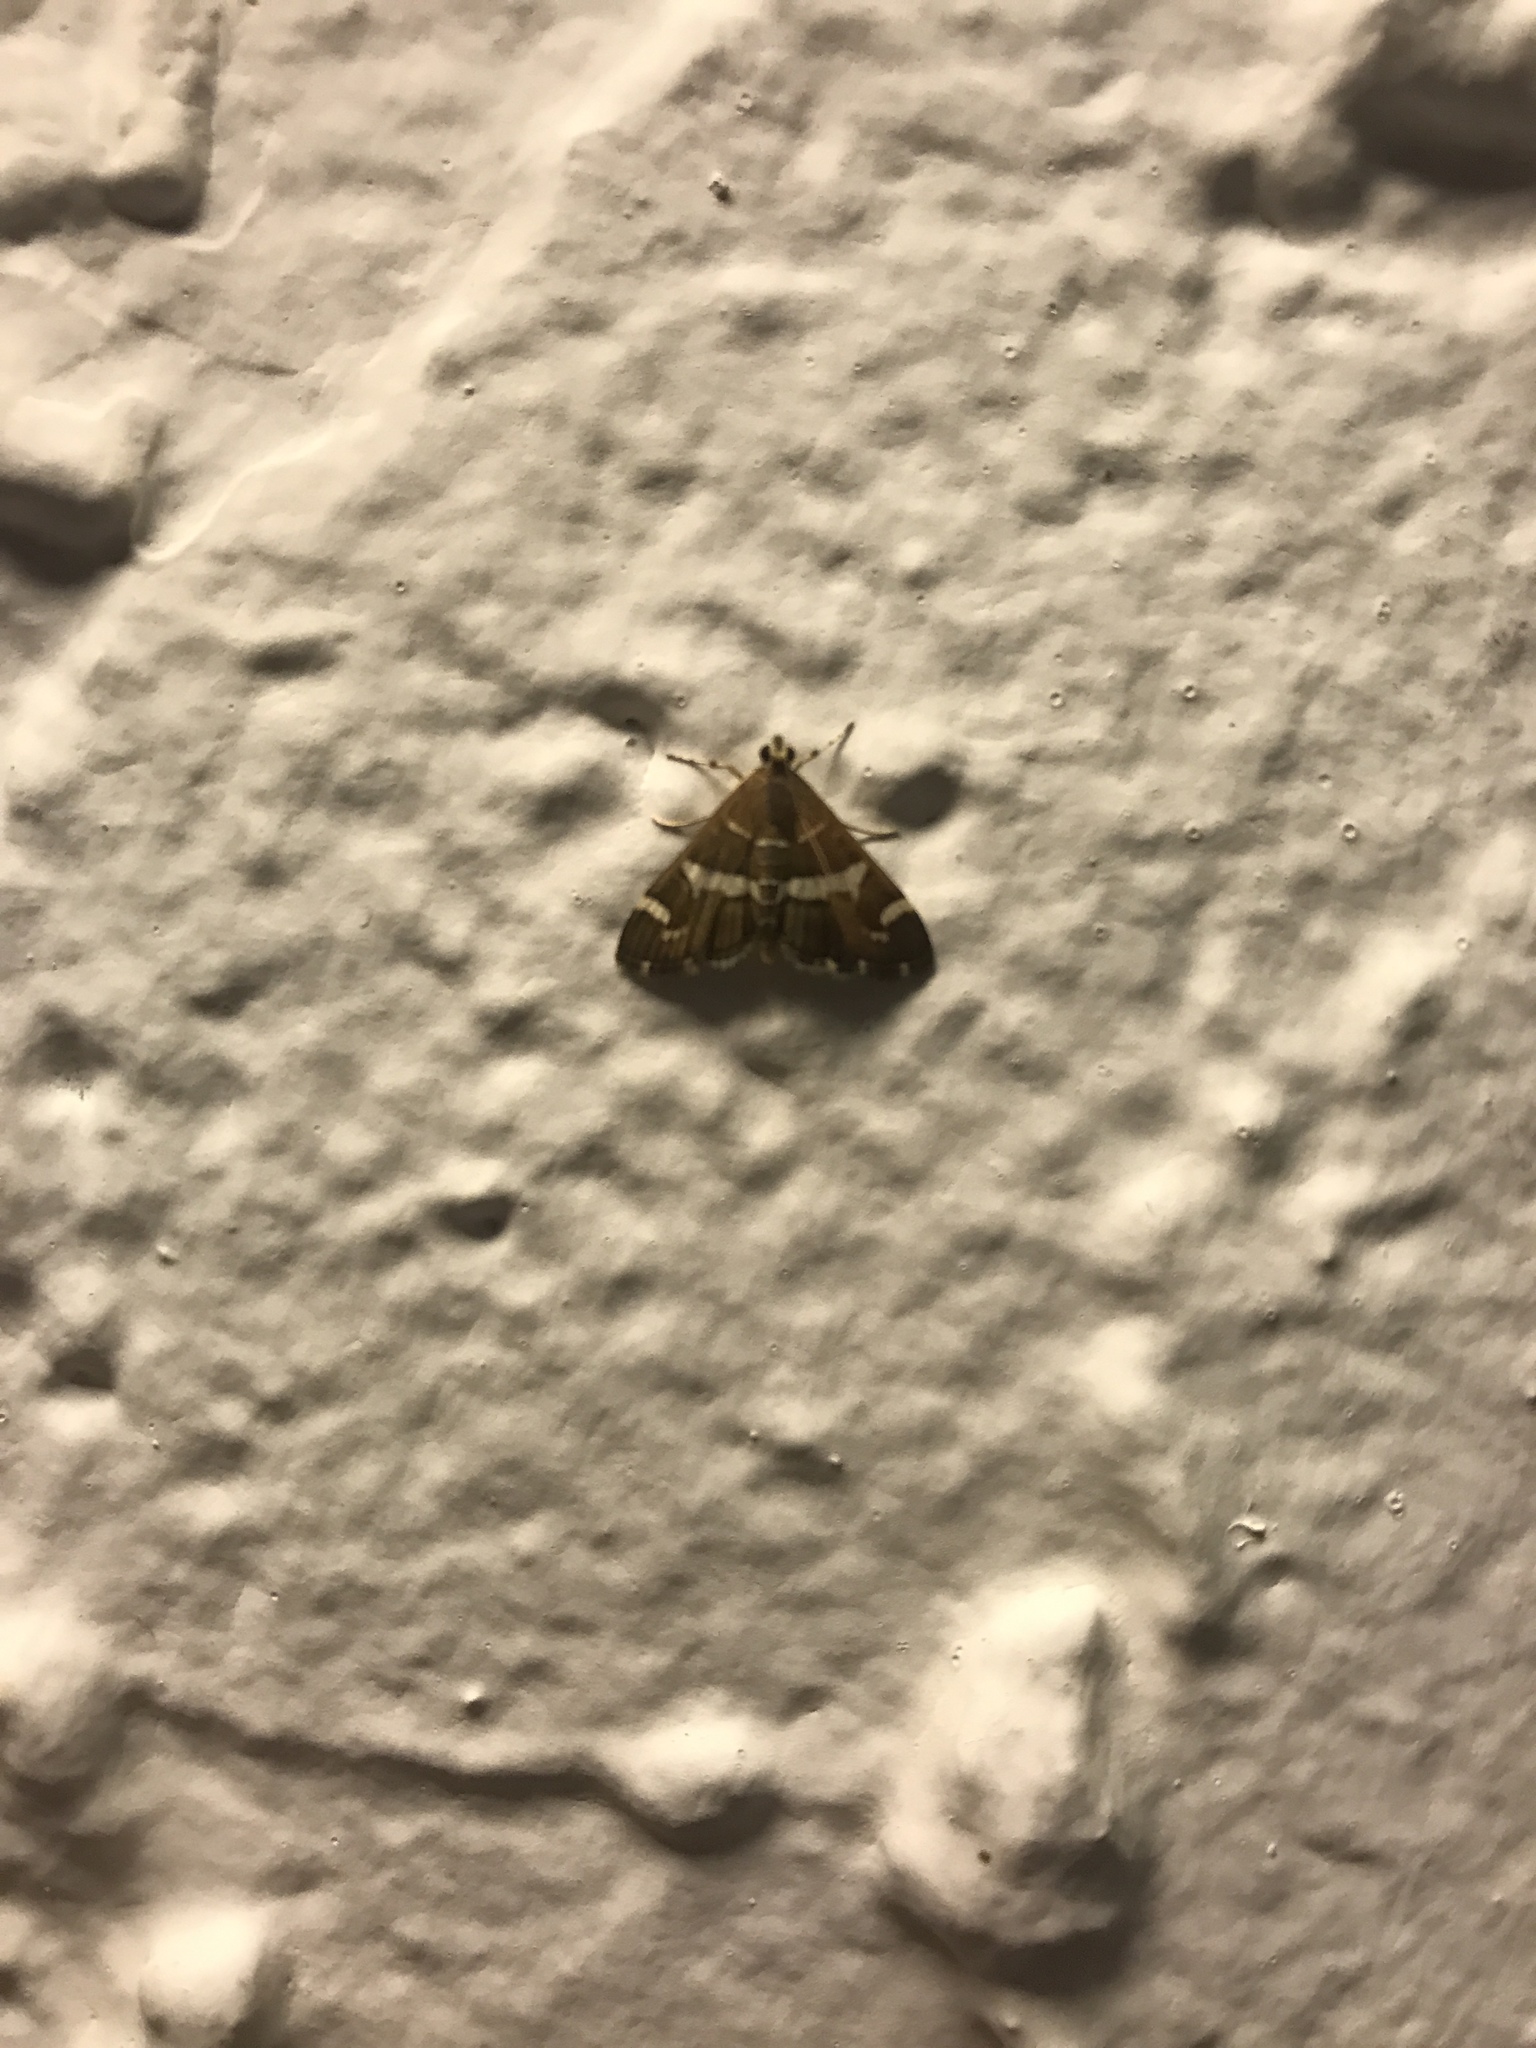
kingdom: Animalia
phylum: Arthropoda
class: Insecta
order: Lepidoptera
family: Crambidae
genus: Spoladea
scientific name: Spoladea recurvalis
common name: Beet webworm moth
